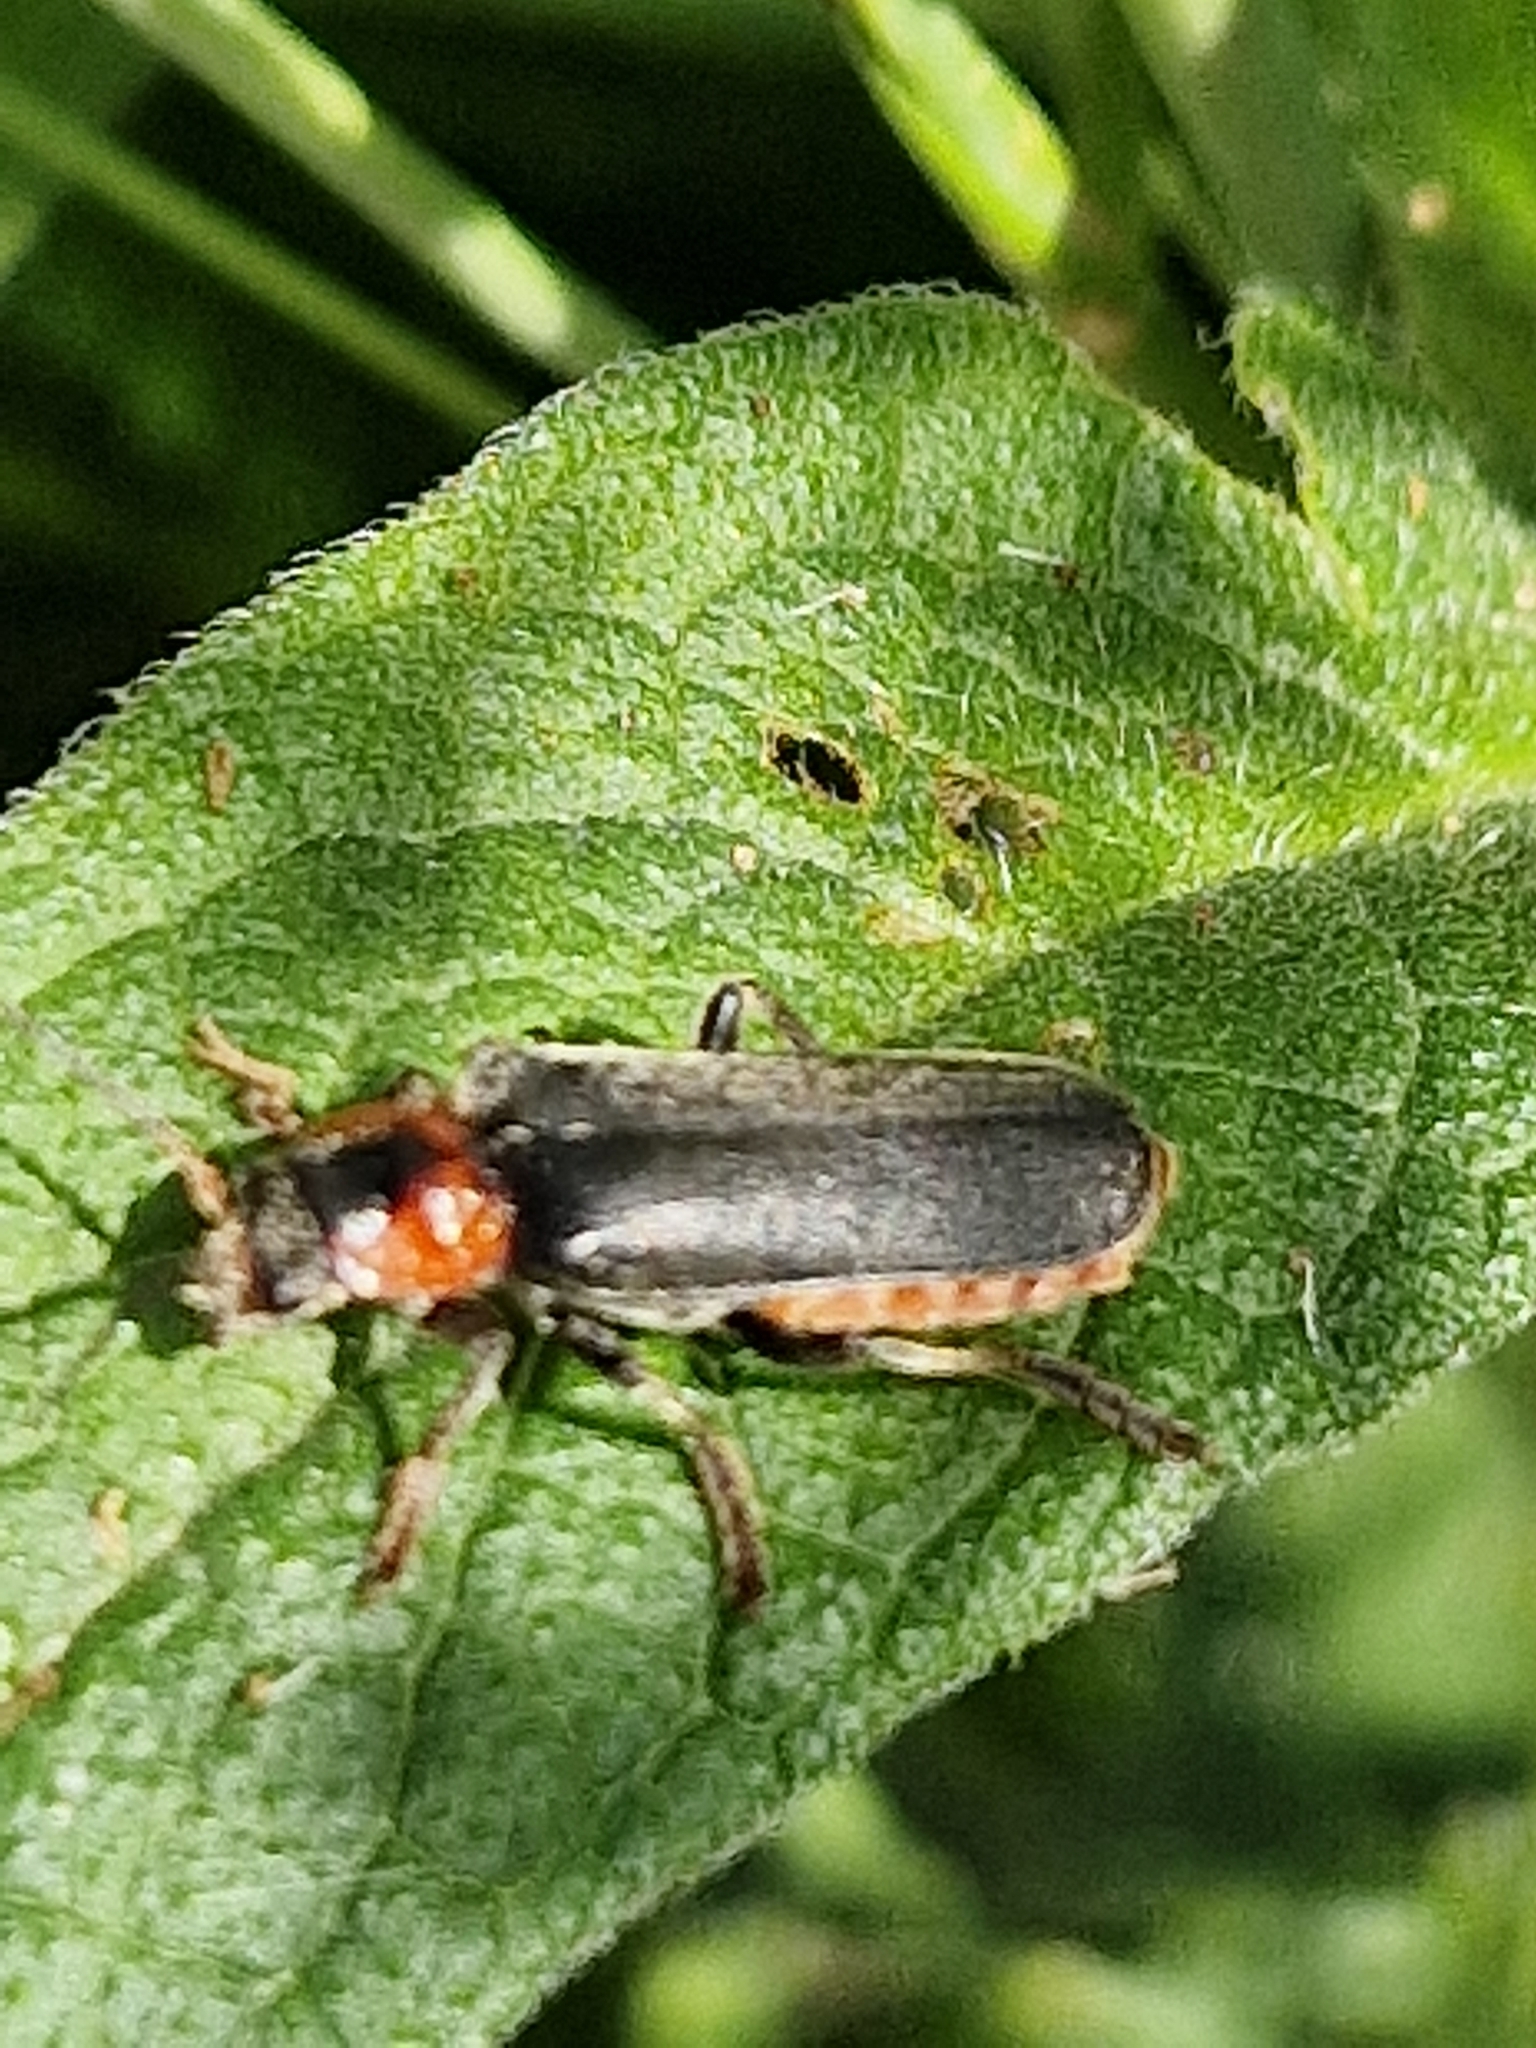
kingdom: Animalia
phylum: Arthropoda
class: Insecta
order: Coleoptera
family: Cantharidae
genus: Cantharis
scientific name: Cantharis fusca
